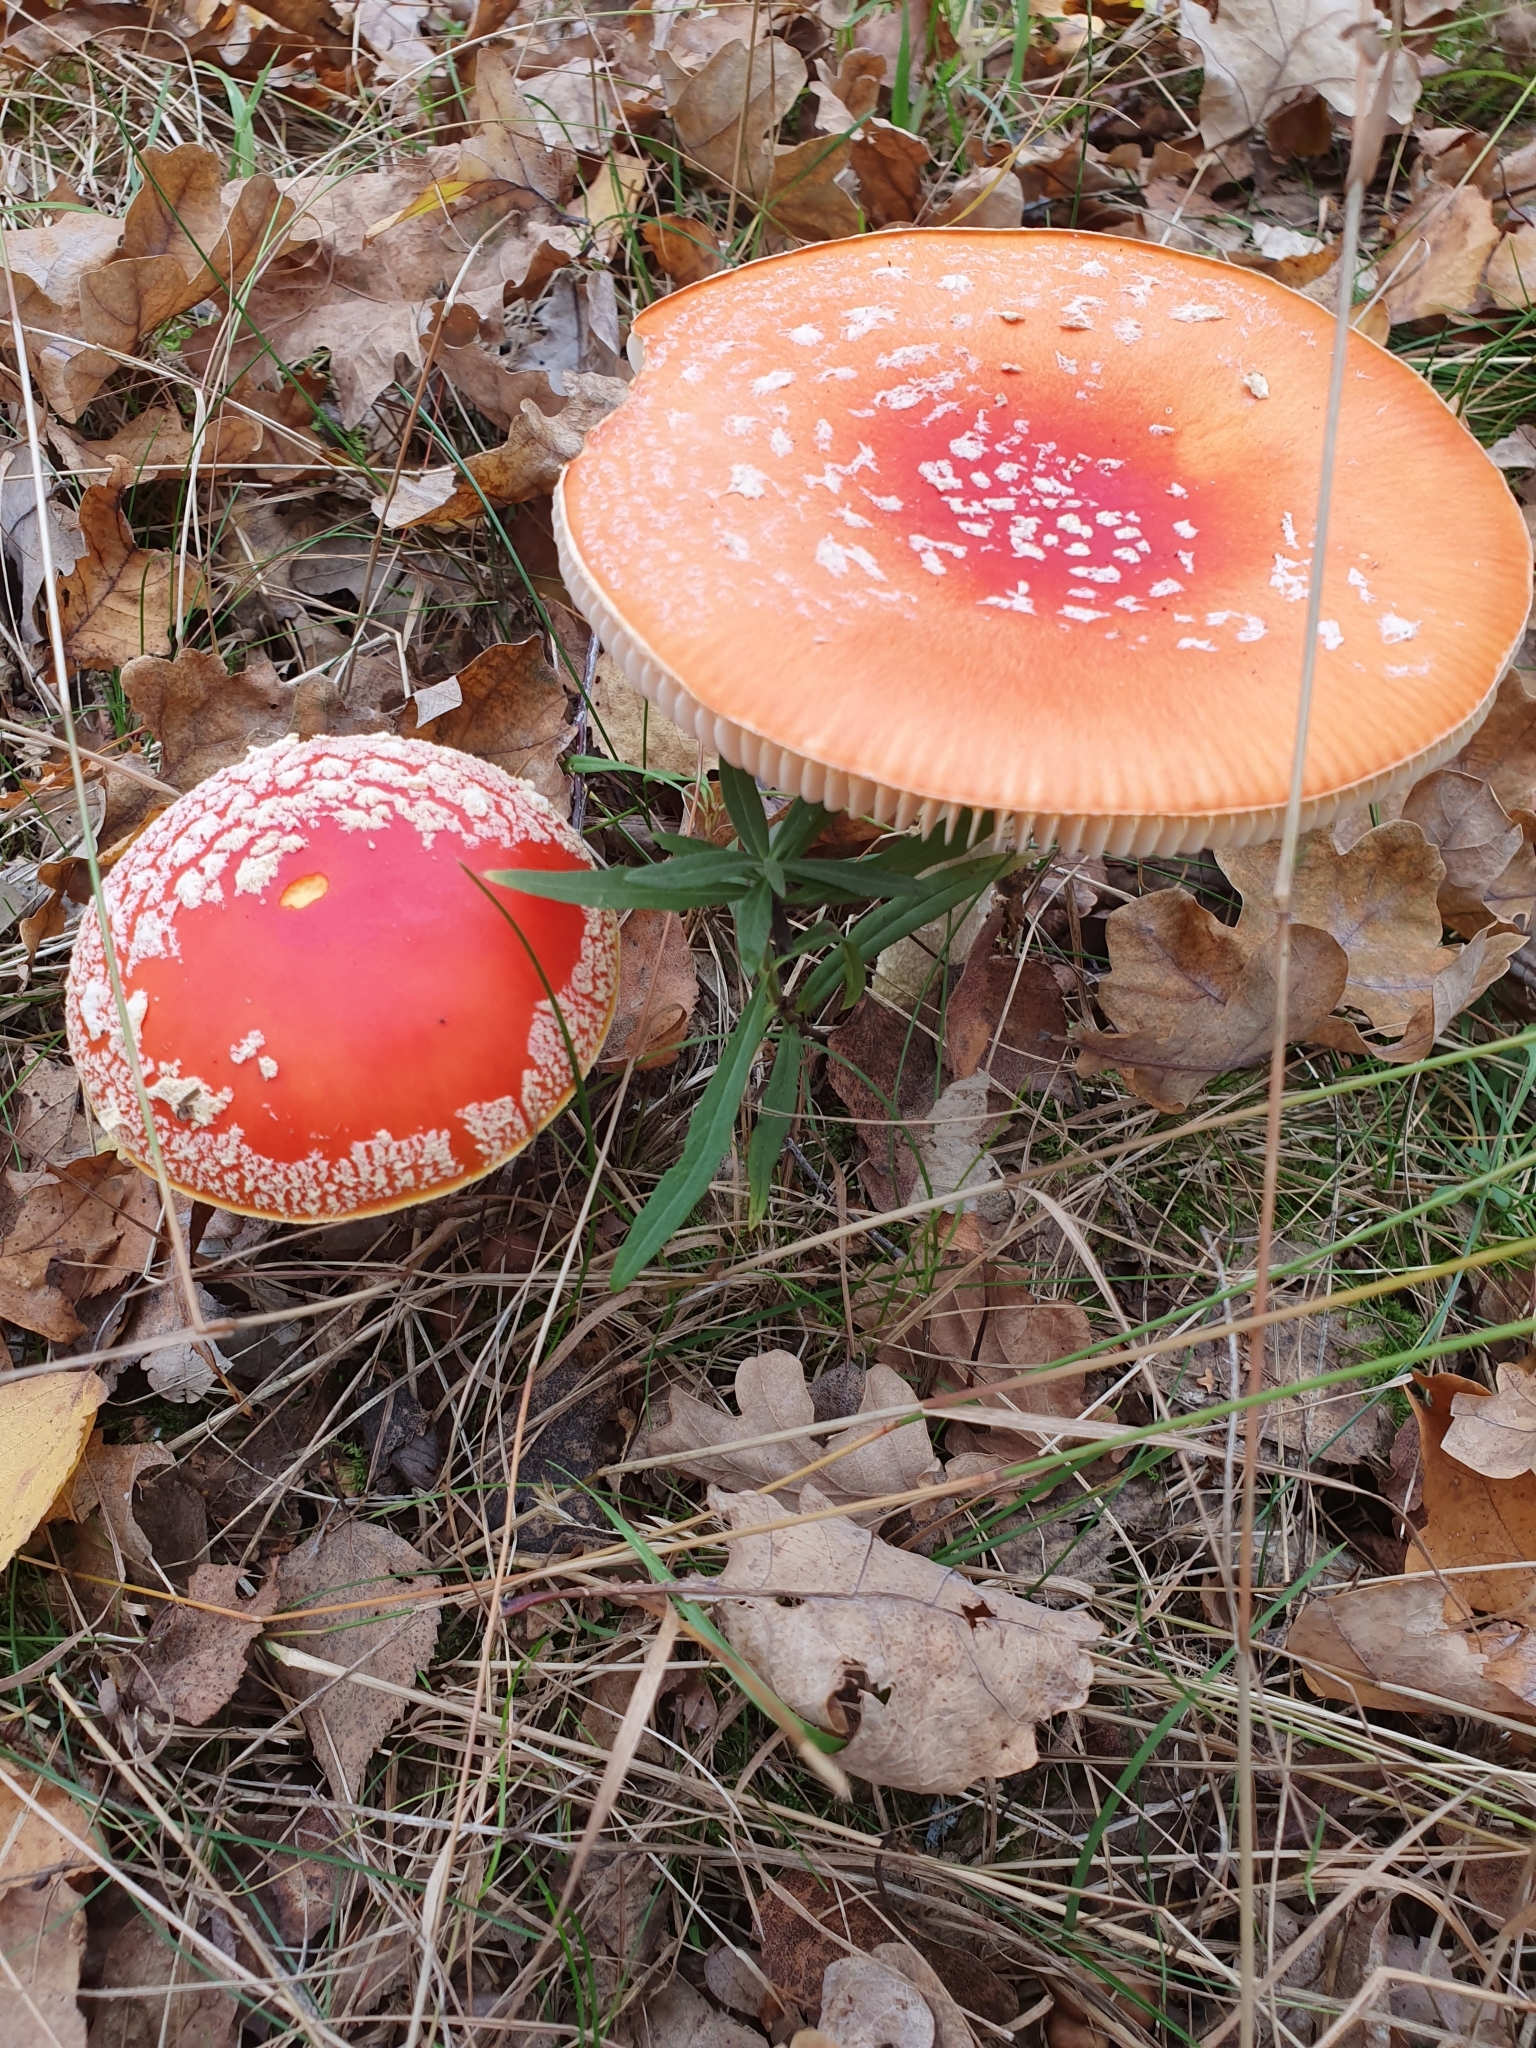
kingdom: Fungi
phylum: Basidiomycota
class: Agaricomycetes
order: Agaricales
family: Amanitaceae
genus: Amanita
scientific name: Amanita muscaria
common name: Fly agaric
